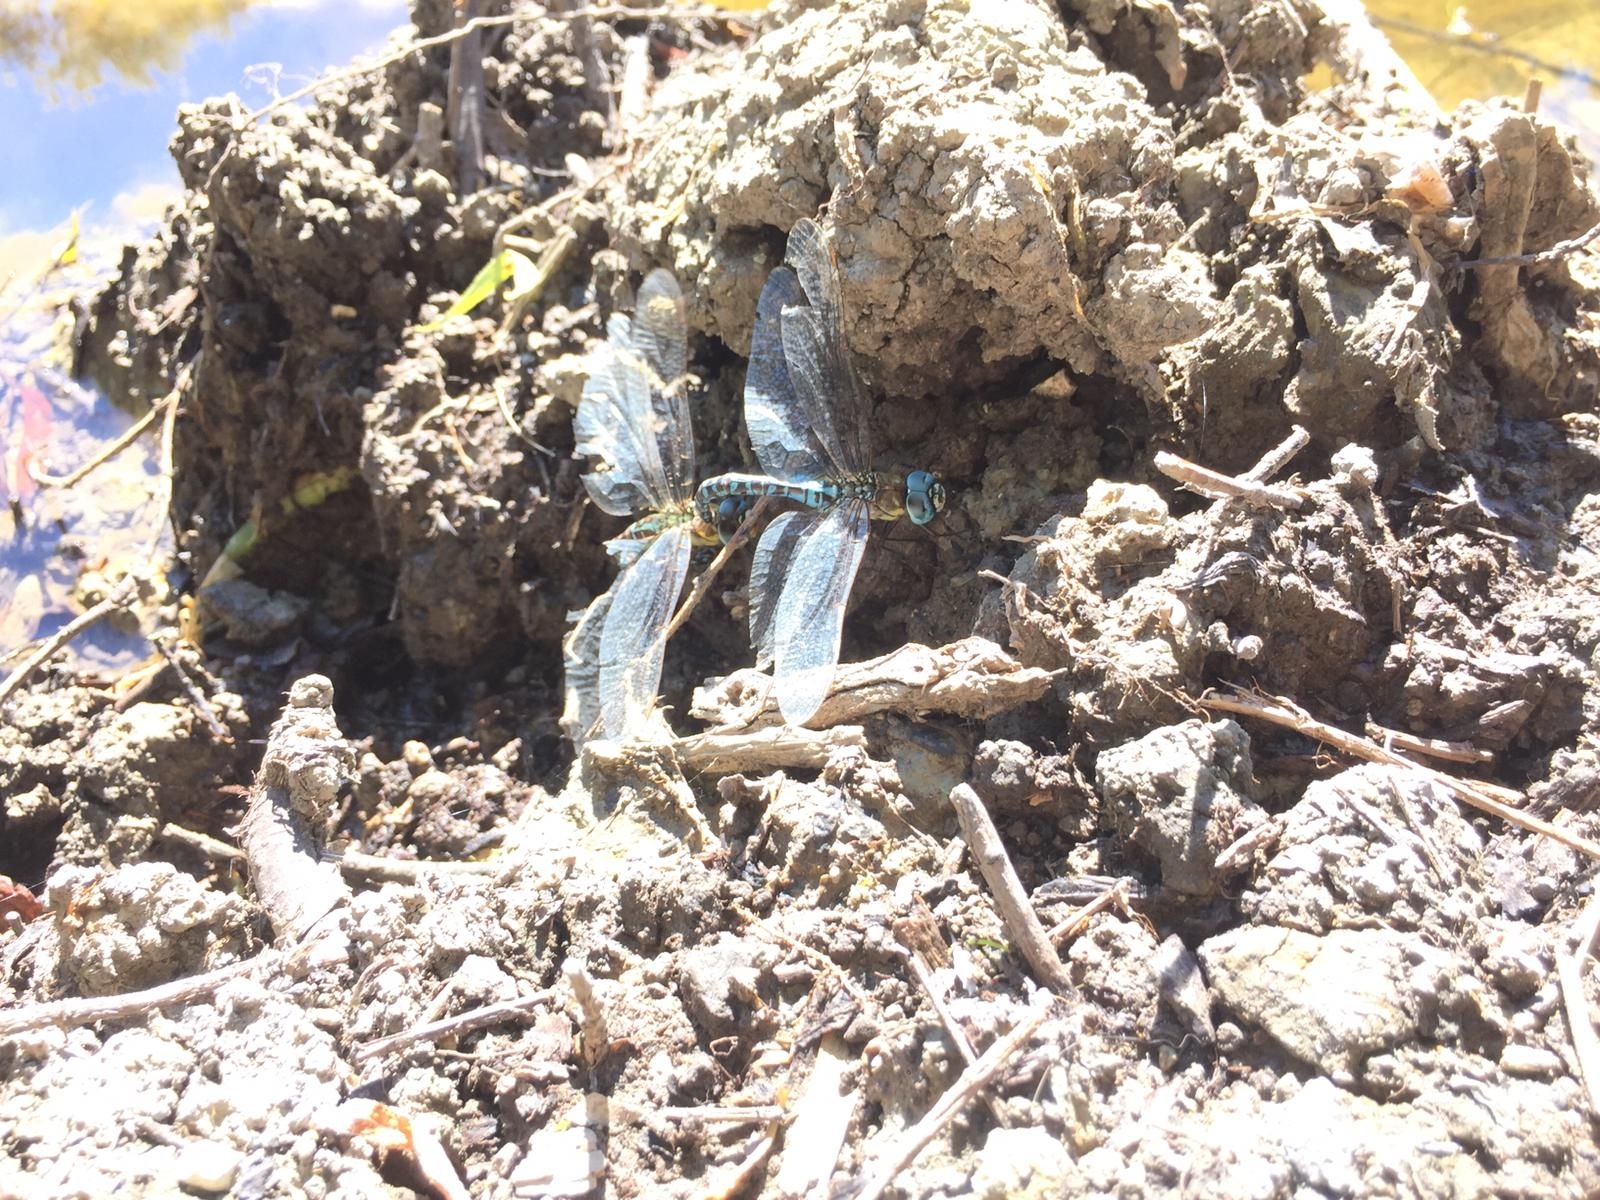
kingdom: Animalia
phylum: Arthropoda
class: Insecta
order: Odonata
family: Aeshnidae
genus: Aeshna
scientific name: Aeshna affinis
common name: Southern migrant hawker
